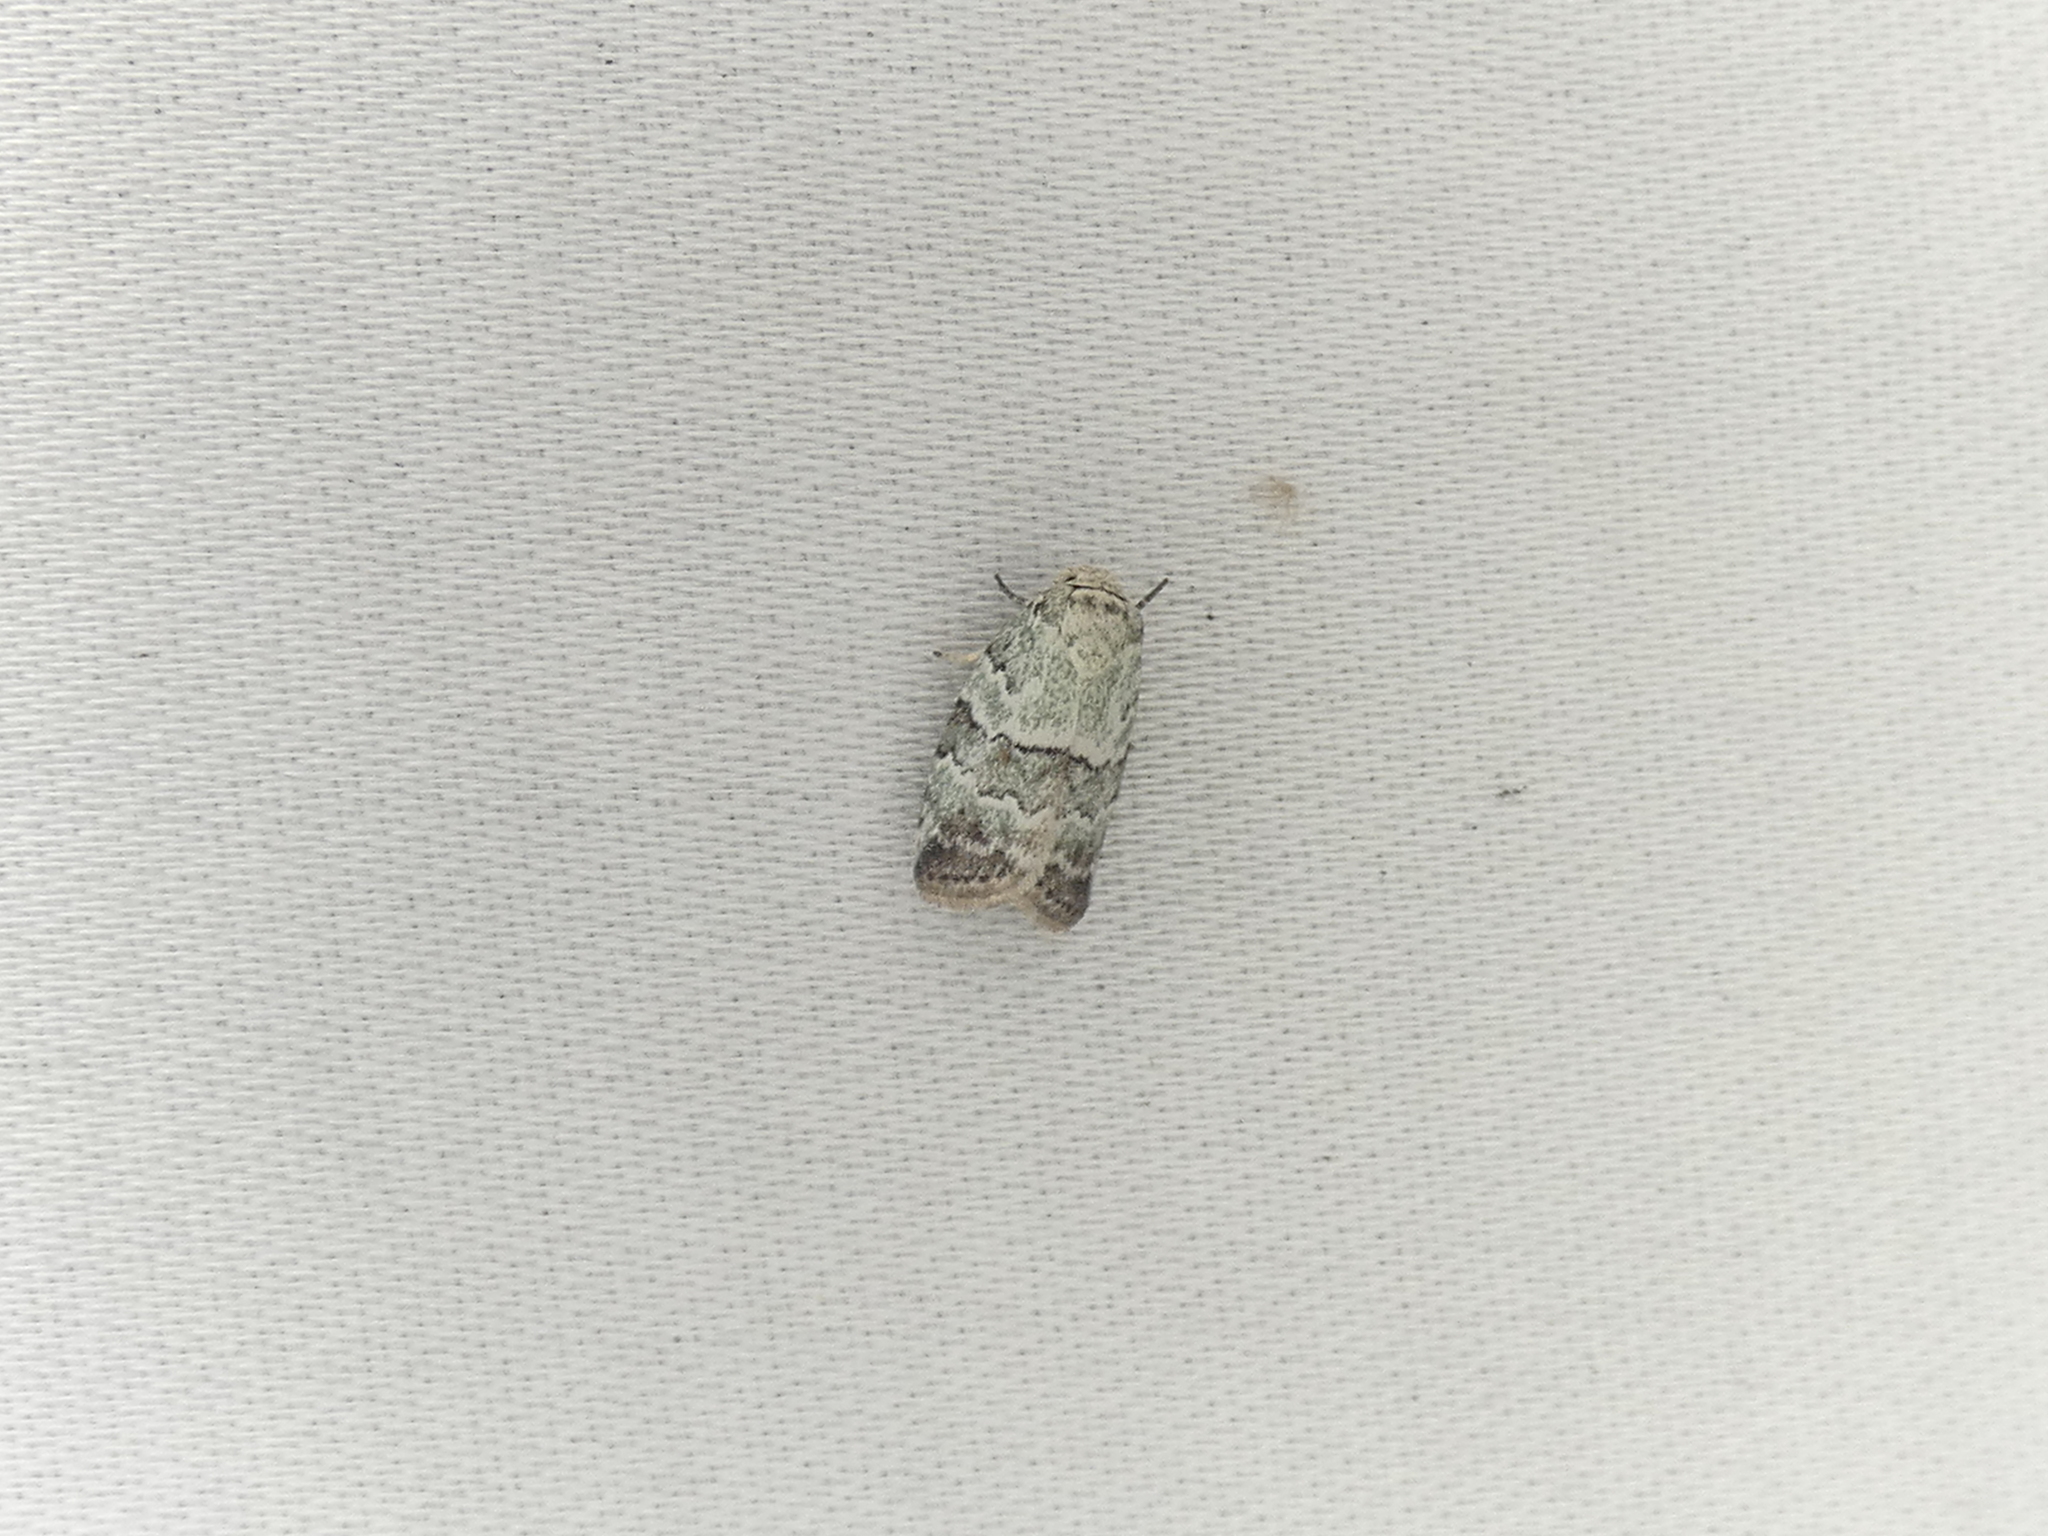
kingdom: Animalia
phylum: Arthropoda
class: Insecta
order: Lepidoptera
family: Nolidae
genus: Afrida
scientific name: Afrida ydatodes
